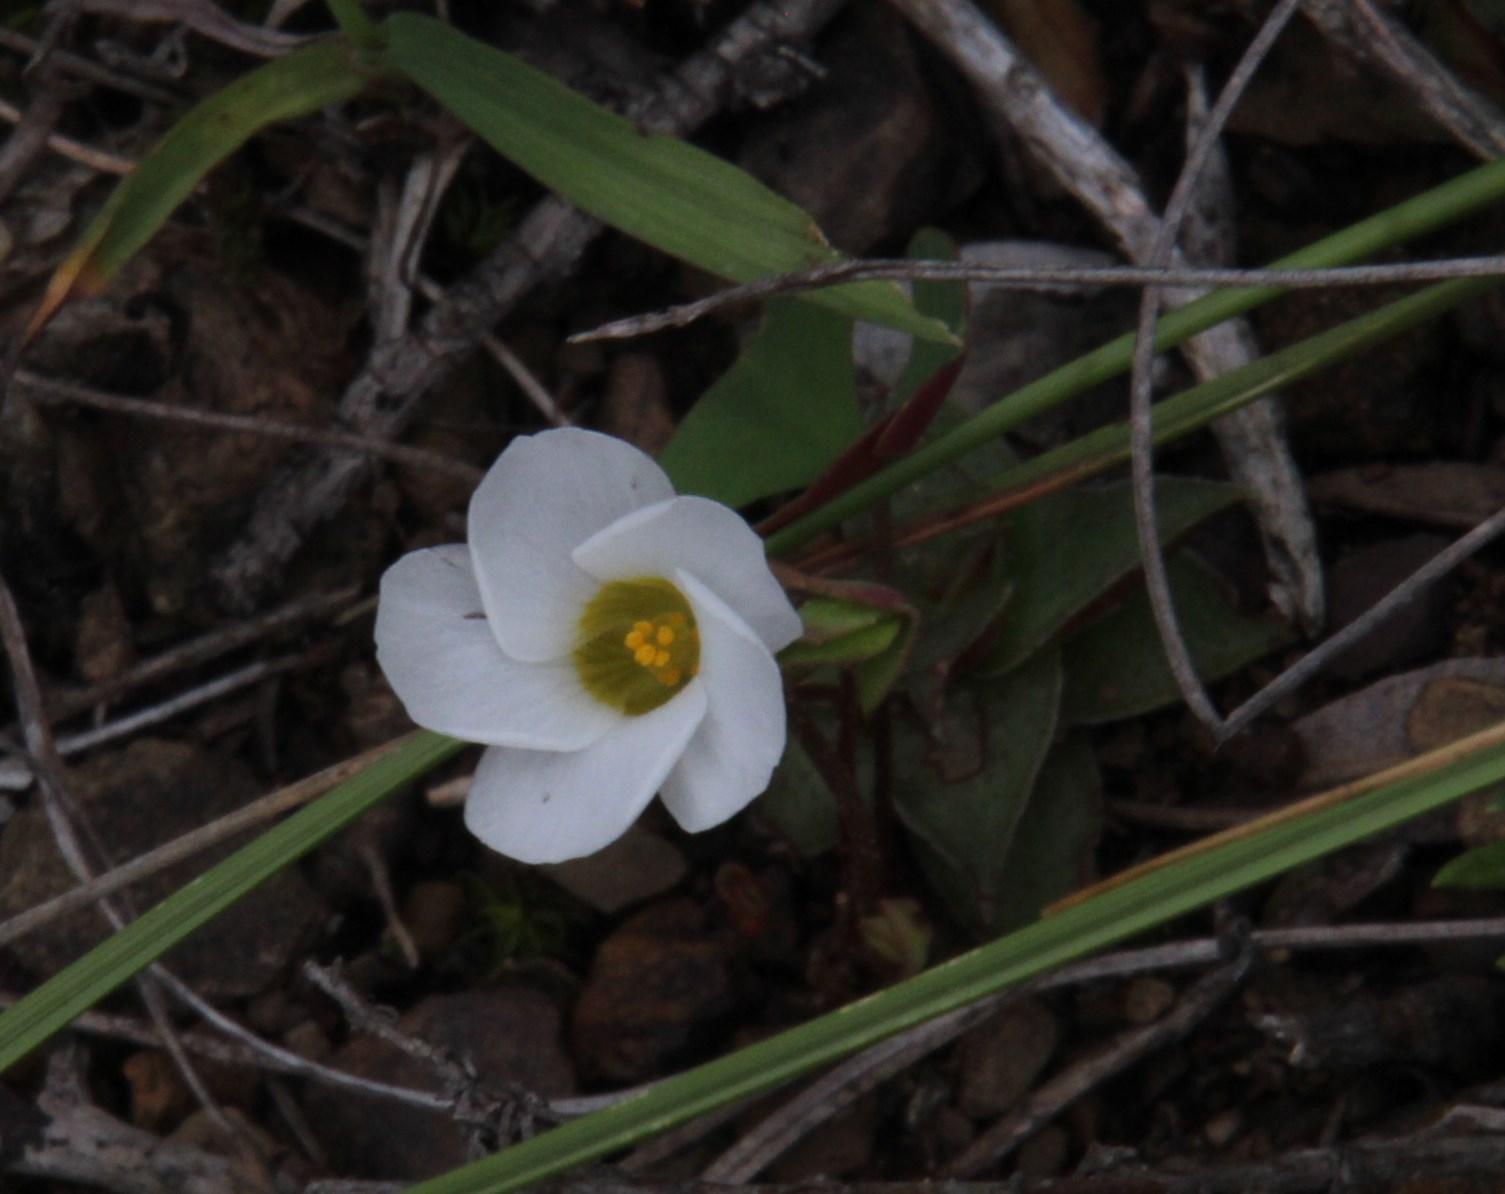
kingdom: Plantae
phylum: Tracheophyta
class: Magnoliopsida
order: Oxalidales
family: Oxalidaceae
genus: Oxalis
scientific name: Oxalis obliquifolia
